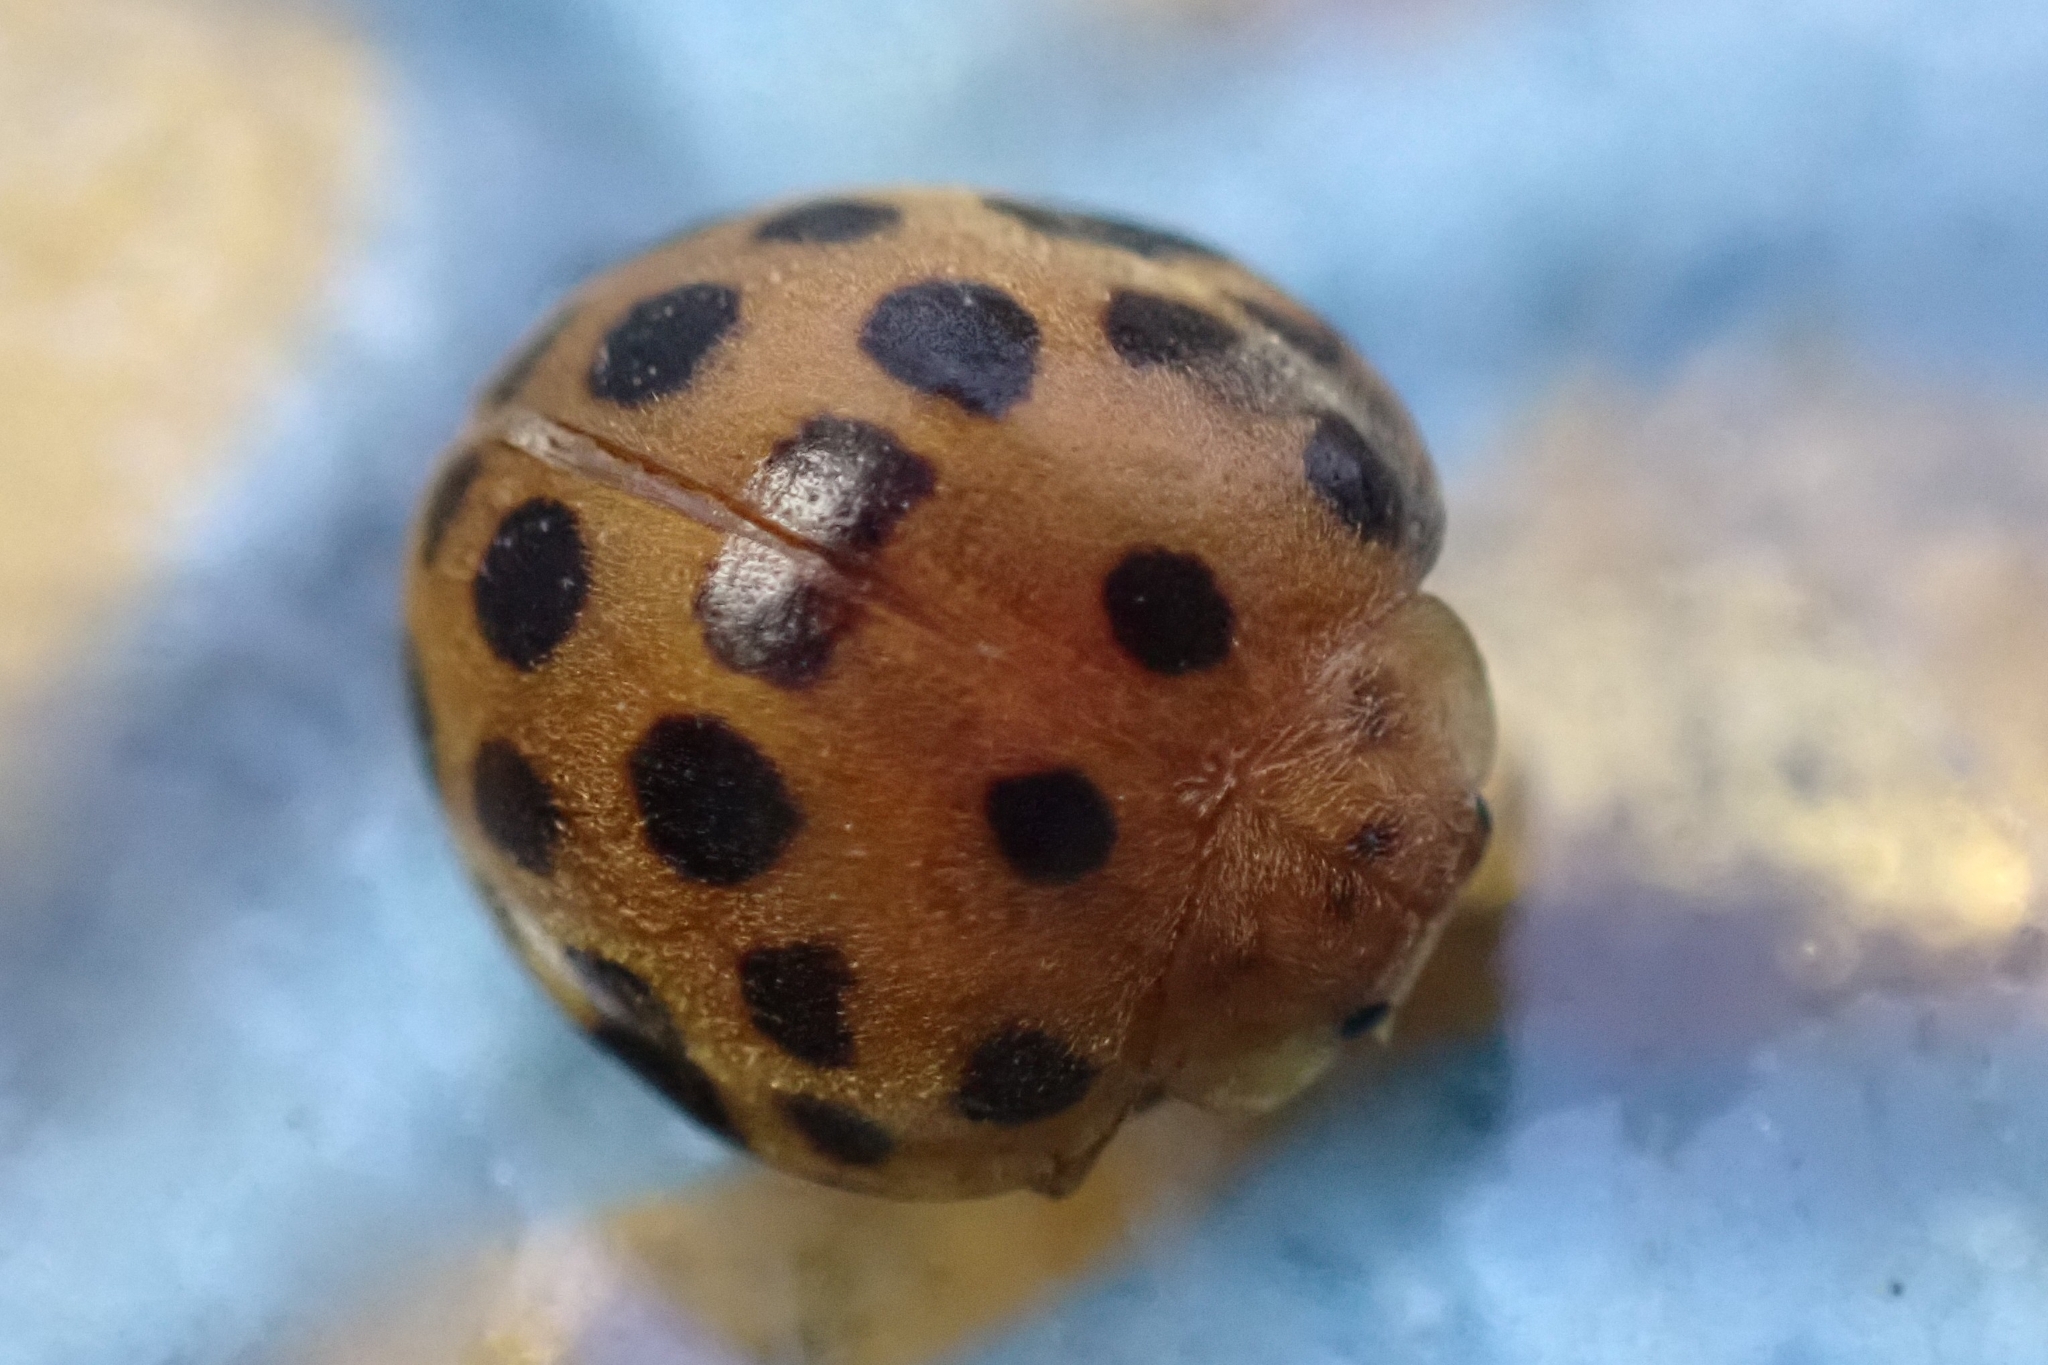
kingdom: Animalia
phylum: Arthropoda
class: Insecta
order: Coleoptera
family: Coccinellidae
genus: Henosepilachna
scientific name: Henosepilachna vigintioctopunctata
